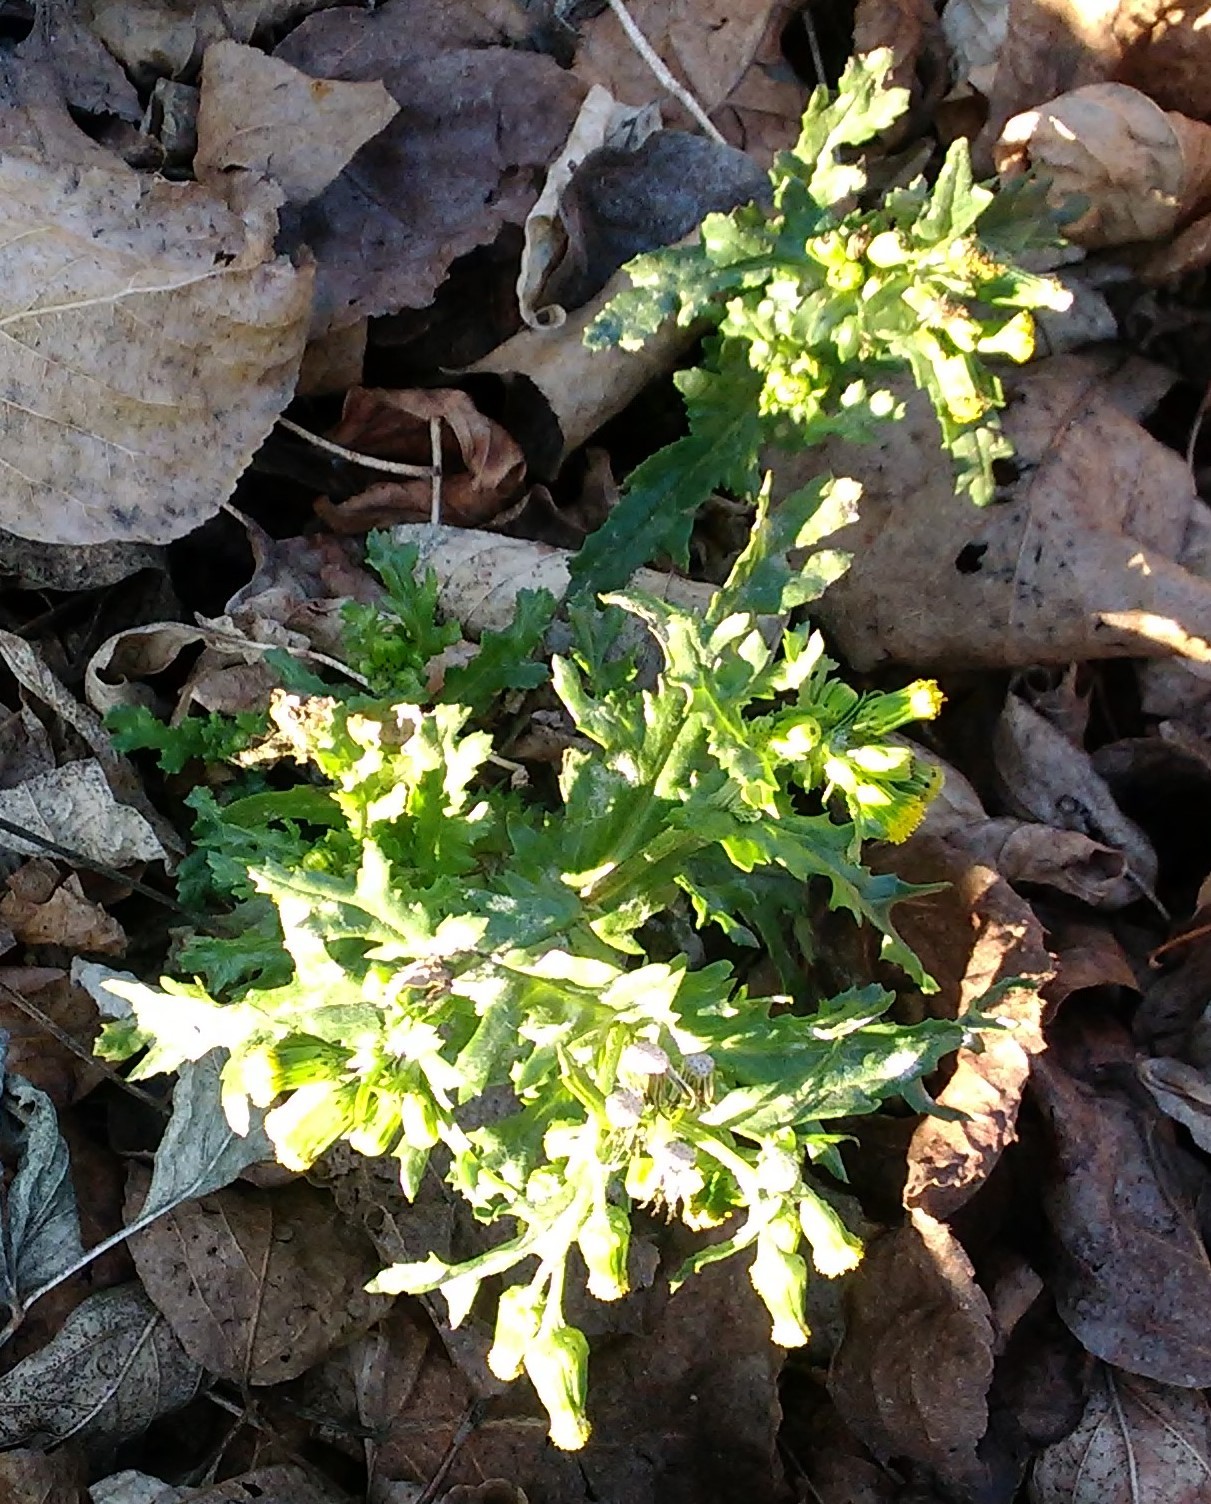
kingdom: Plantae
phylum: Tracheophyta
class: Magnoliopsida
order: Asterales
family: Asteraceae
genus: Senecio
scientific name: Senecio vulgaris
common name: Old-man-in-the-spring
